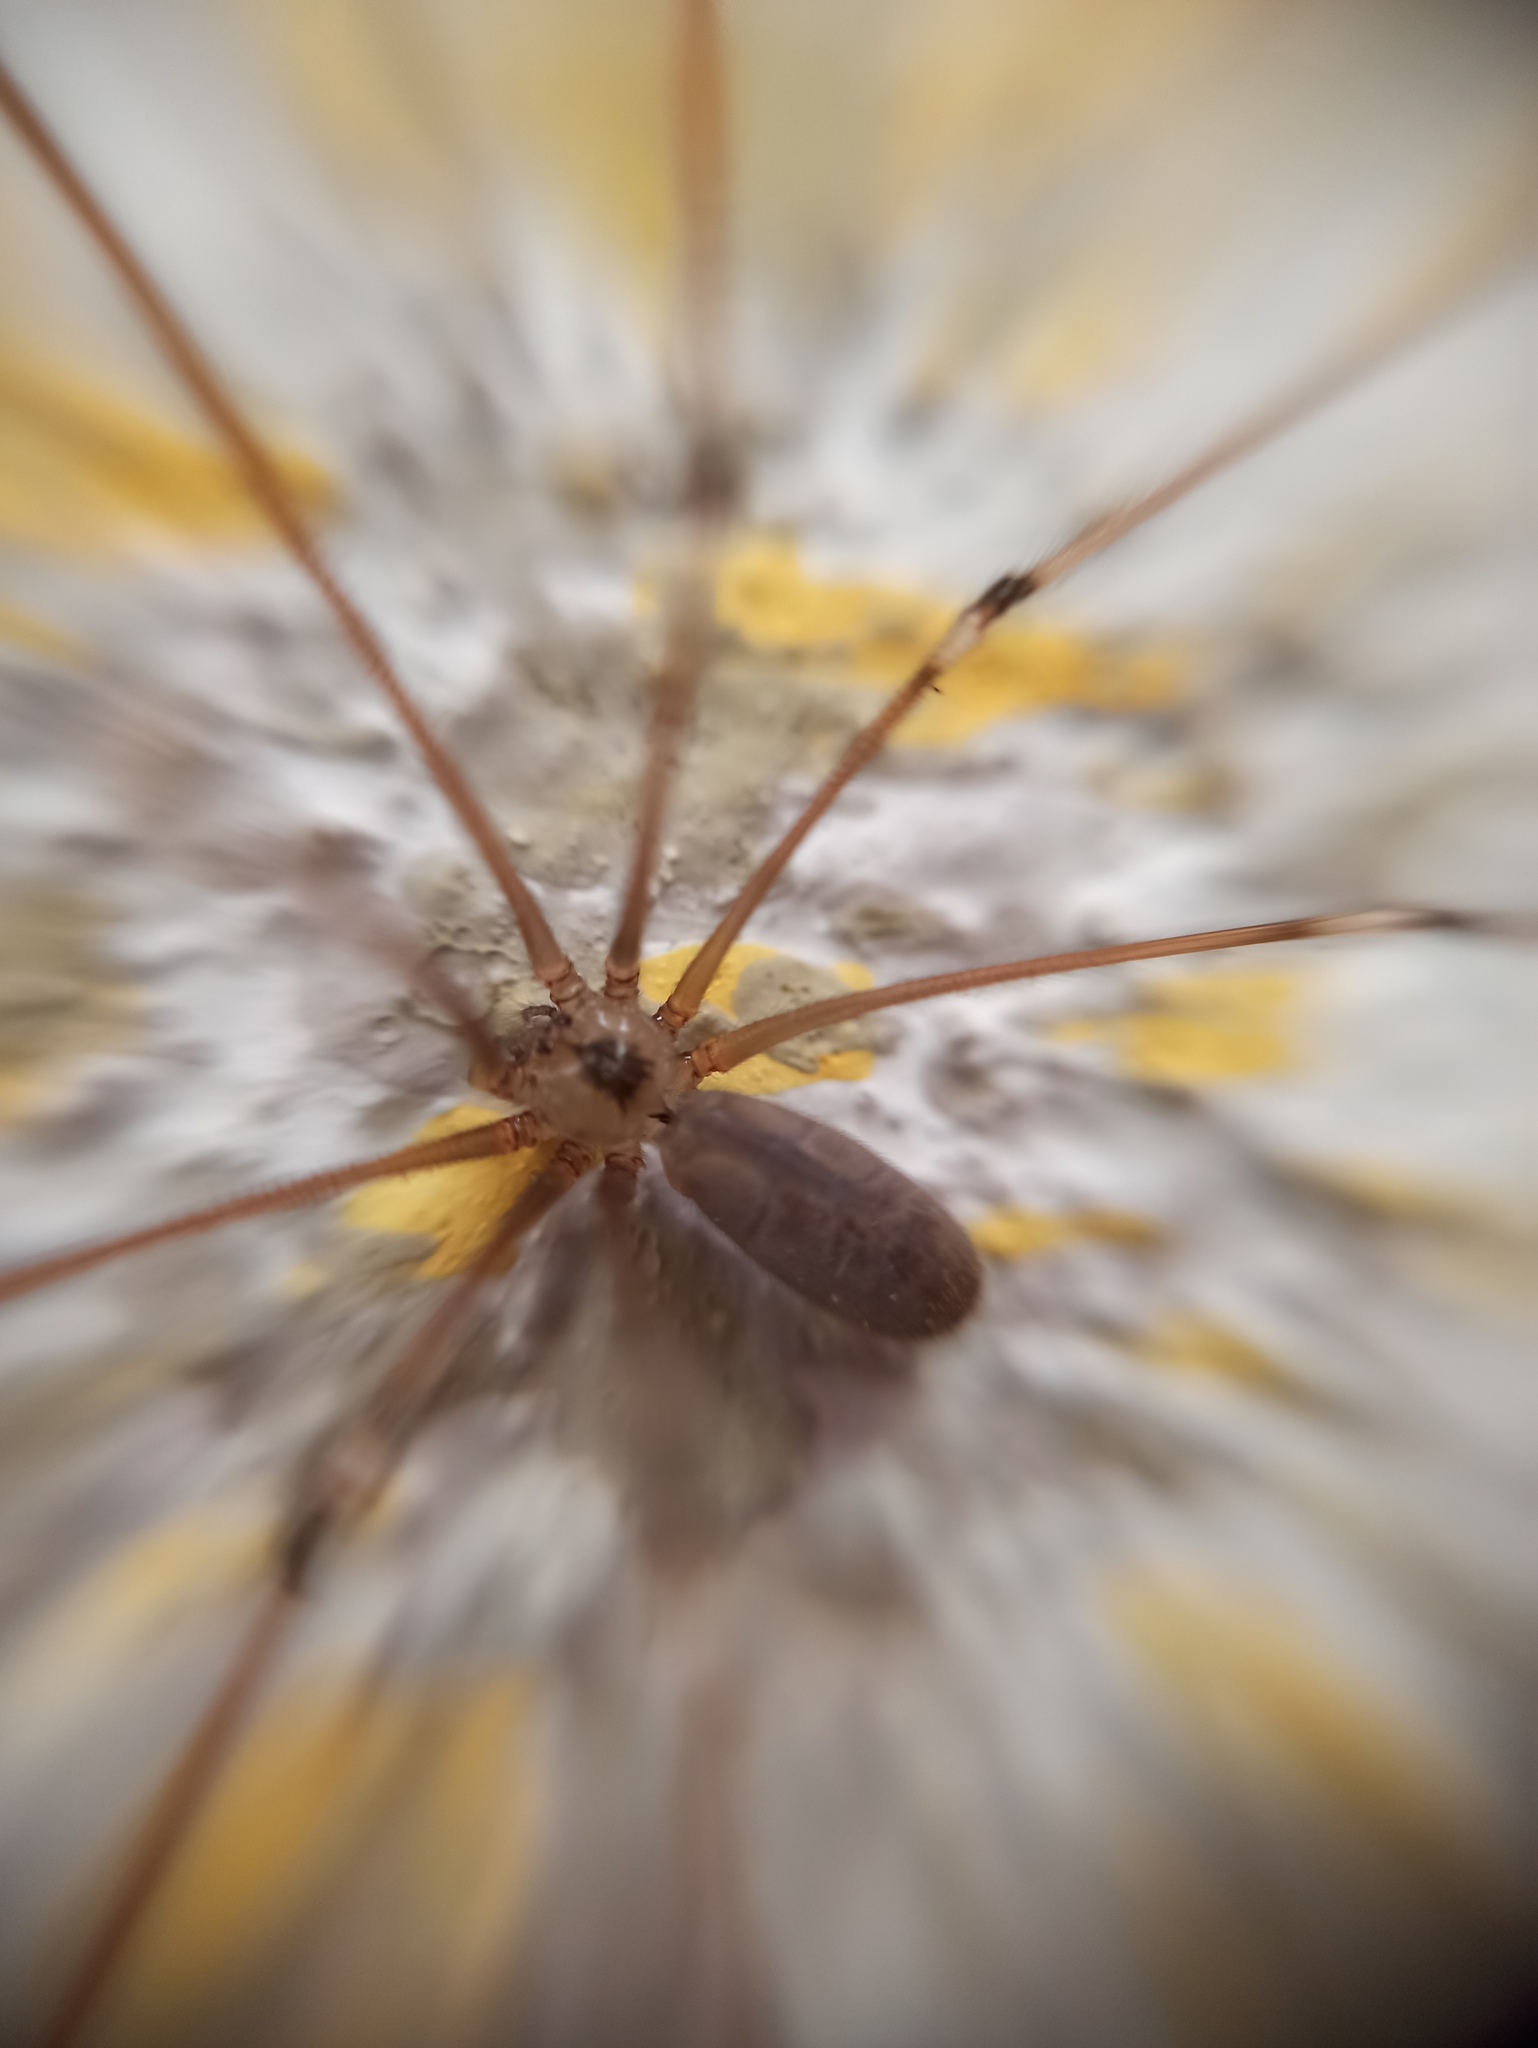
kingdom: Animalia
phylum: Arthropoda
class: Arachnida
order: Araneae
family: Pholcidae
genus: Pholcus
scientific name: Pholcus phalangioides
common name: Longbodied cellar spider
